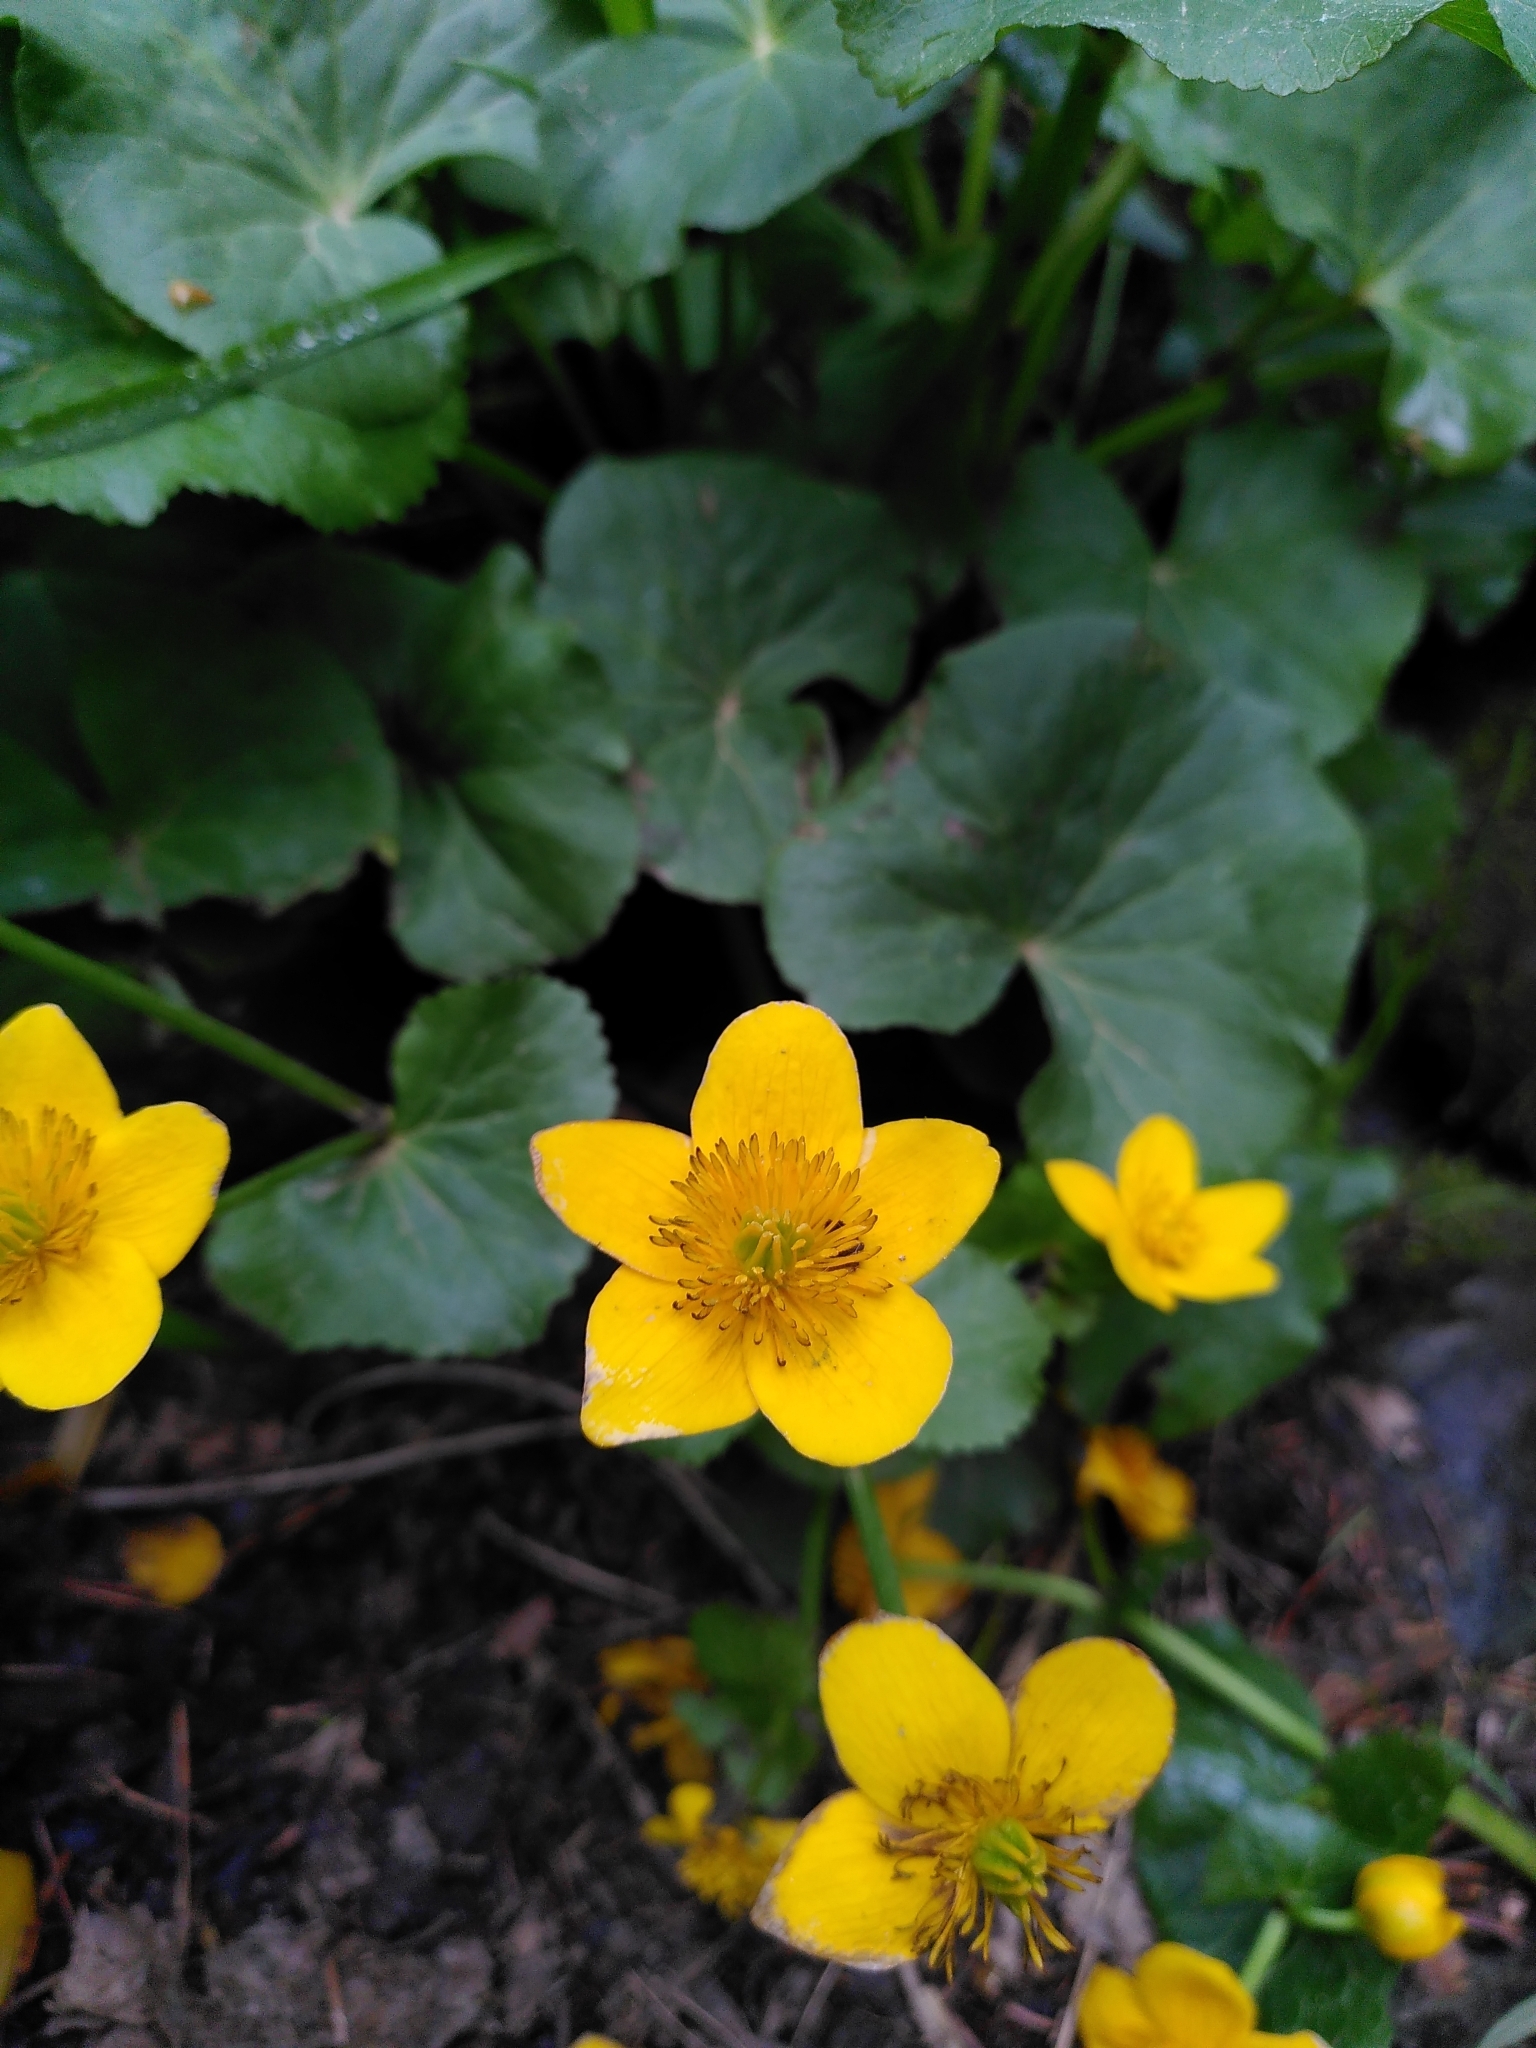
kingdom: Plantae
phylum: Tracheophyta
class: Magnoliopsida
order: Ranunculales
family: Ranunculaceae
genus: Caltha
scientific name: Caltha palustris
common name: Marsh marigold
